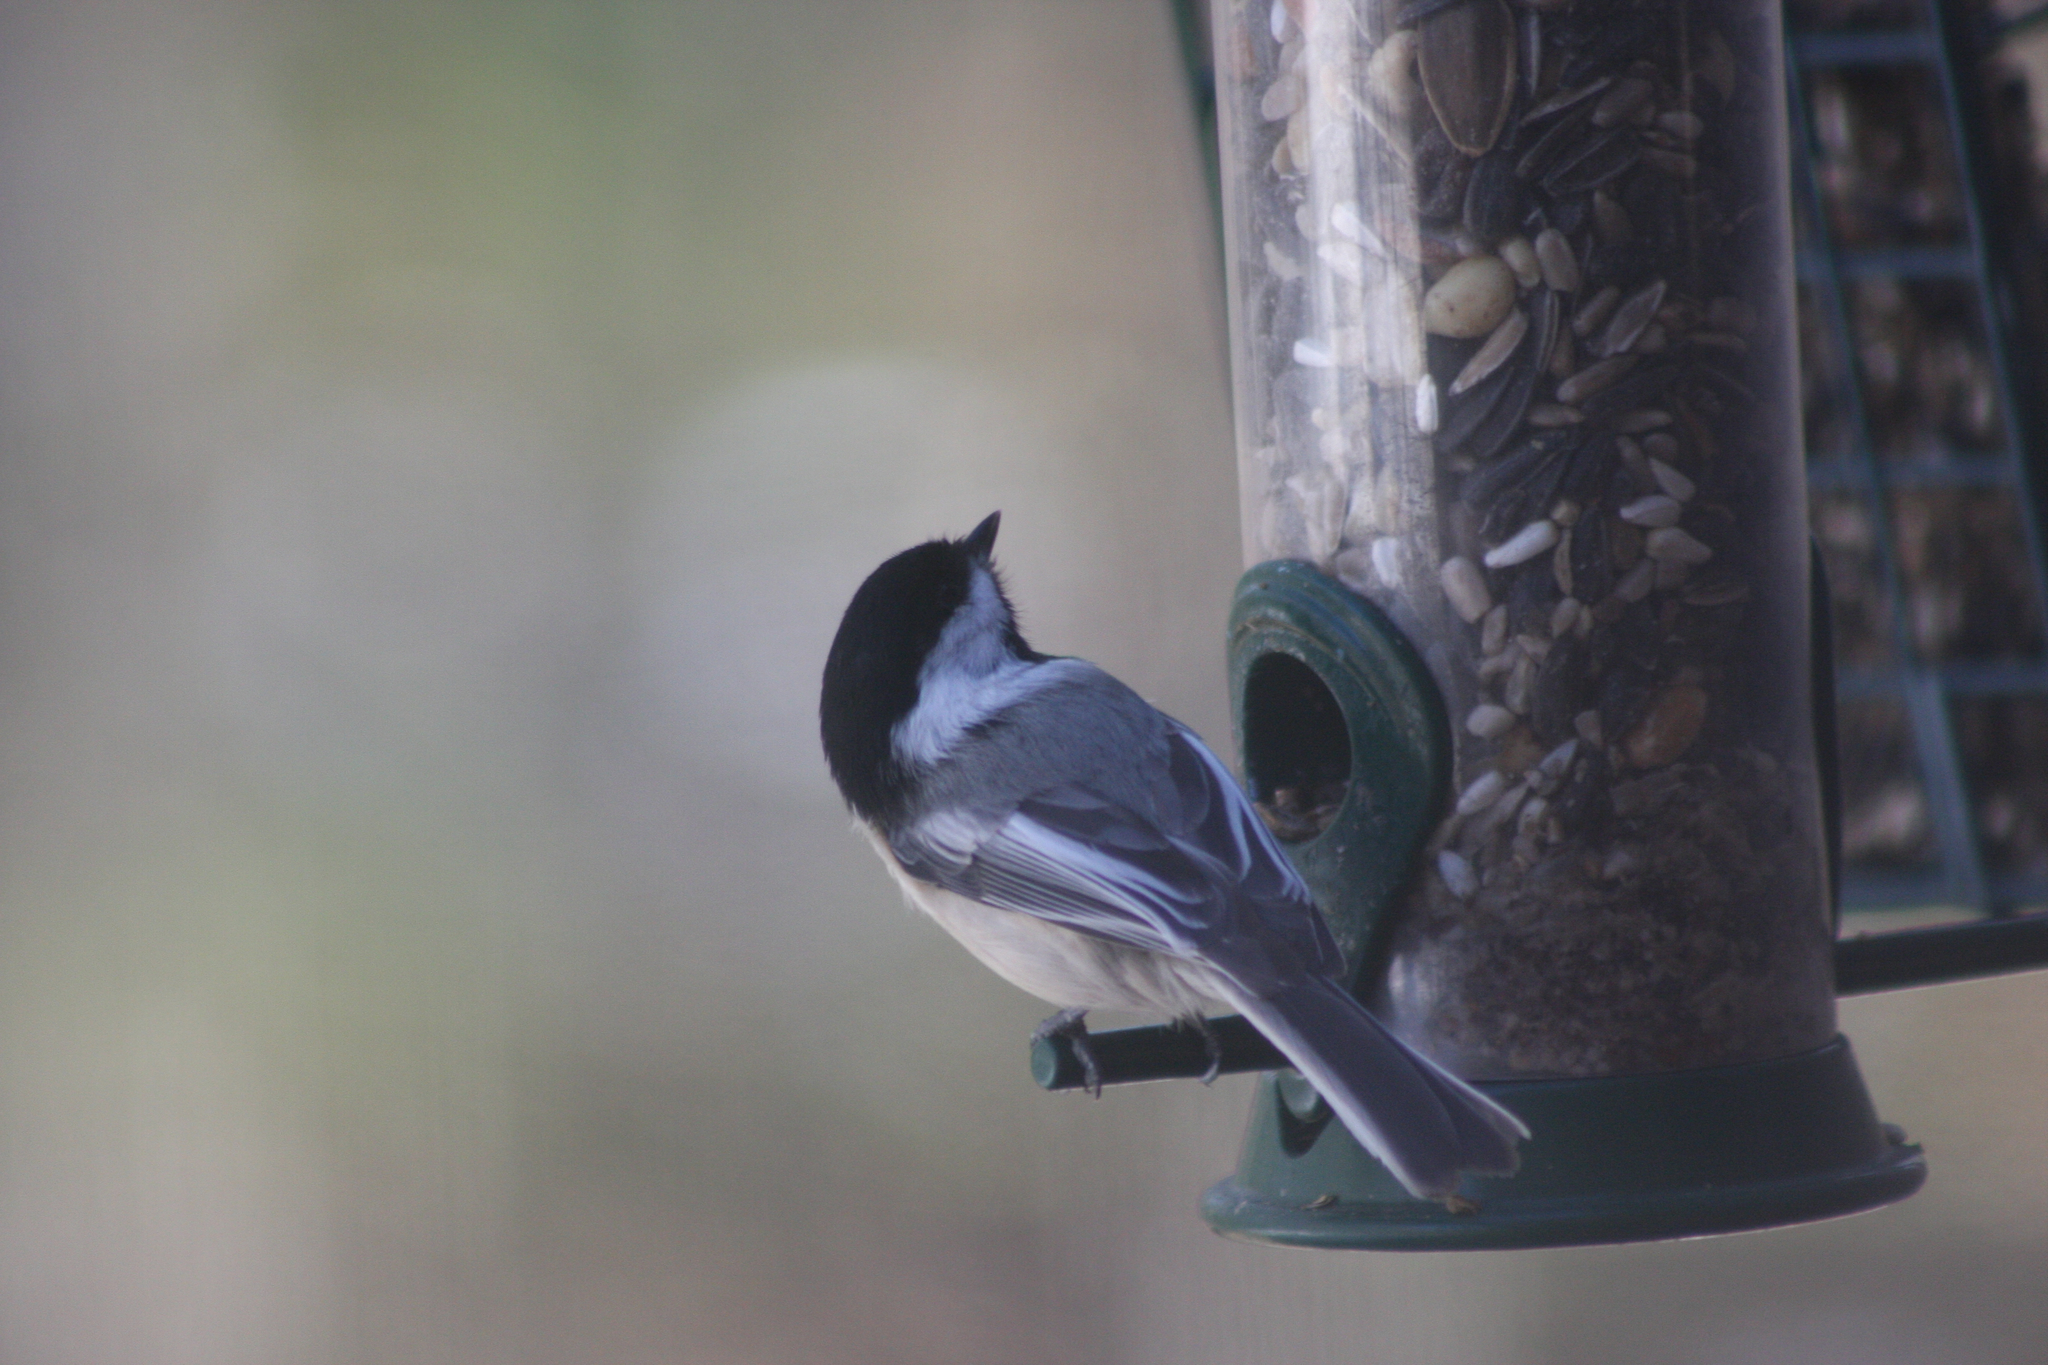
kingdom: Animalia
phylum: Chordata
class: Aves
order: Passeriformes
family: Paridae
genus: Poecile
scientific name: Poecile atricapillus
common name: Black-capped chickadee
